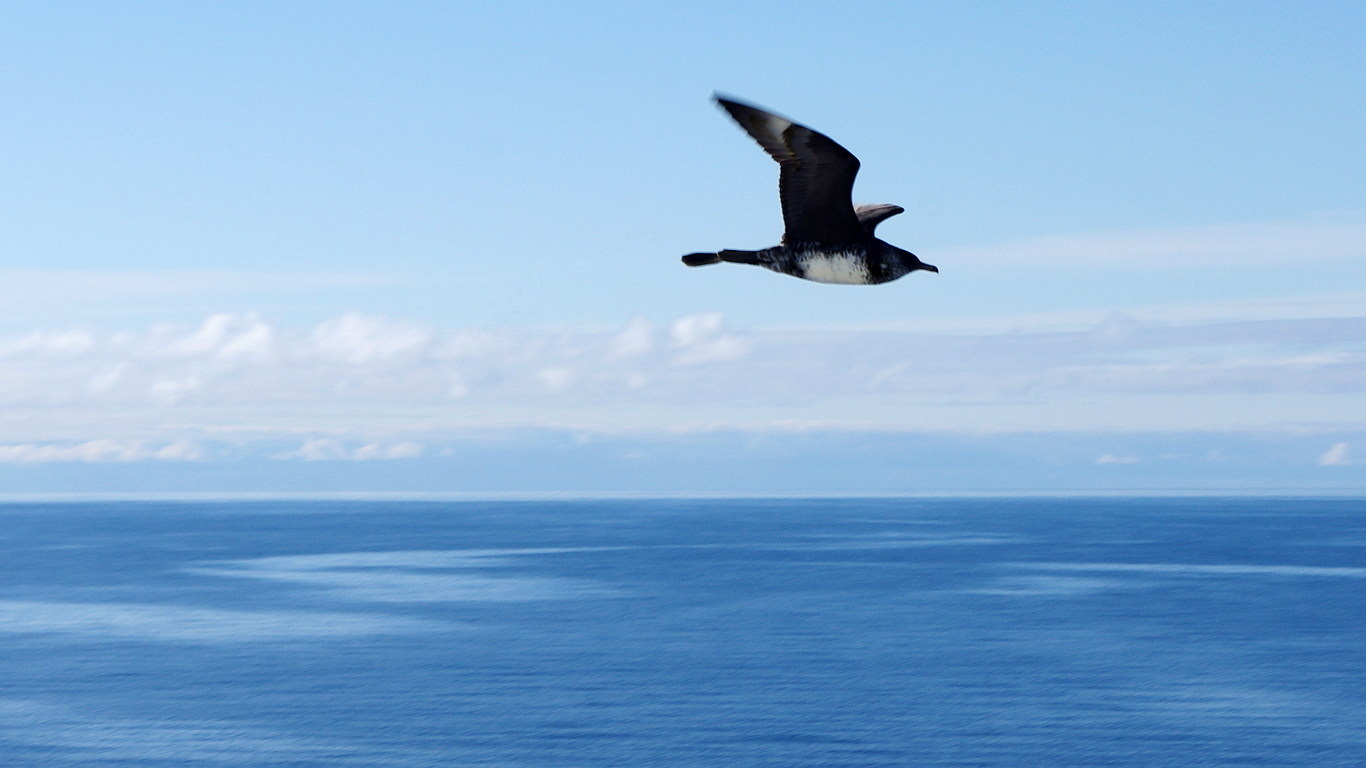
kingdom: Animalia
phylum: Chordata
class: Aves
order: Charadriiformes
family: Stercorariidae
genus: Stercorarius
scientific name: Stercorarius pomarinus
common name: Pomarine jaeger
